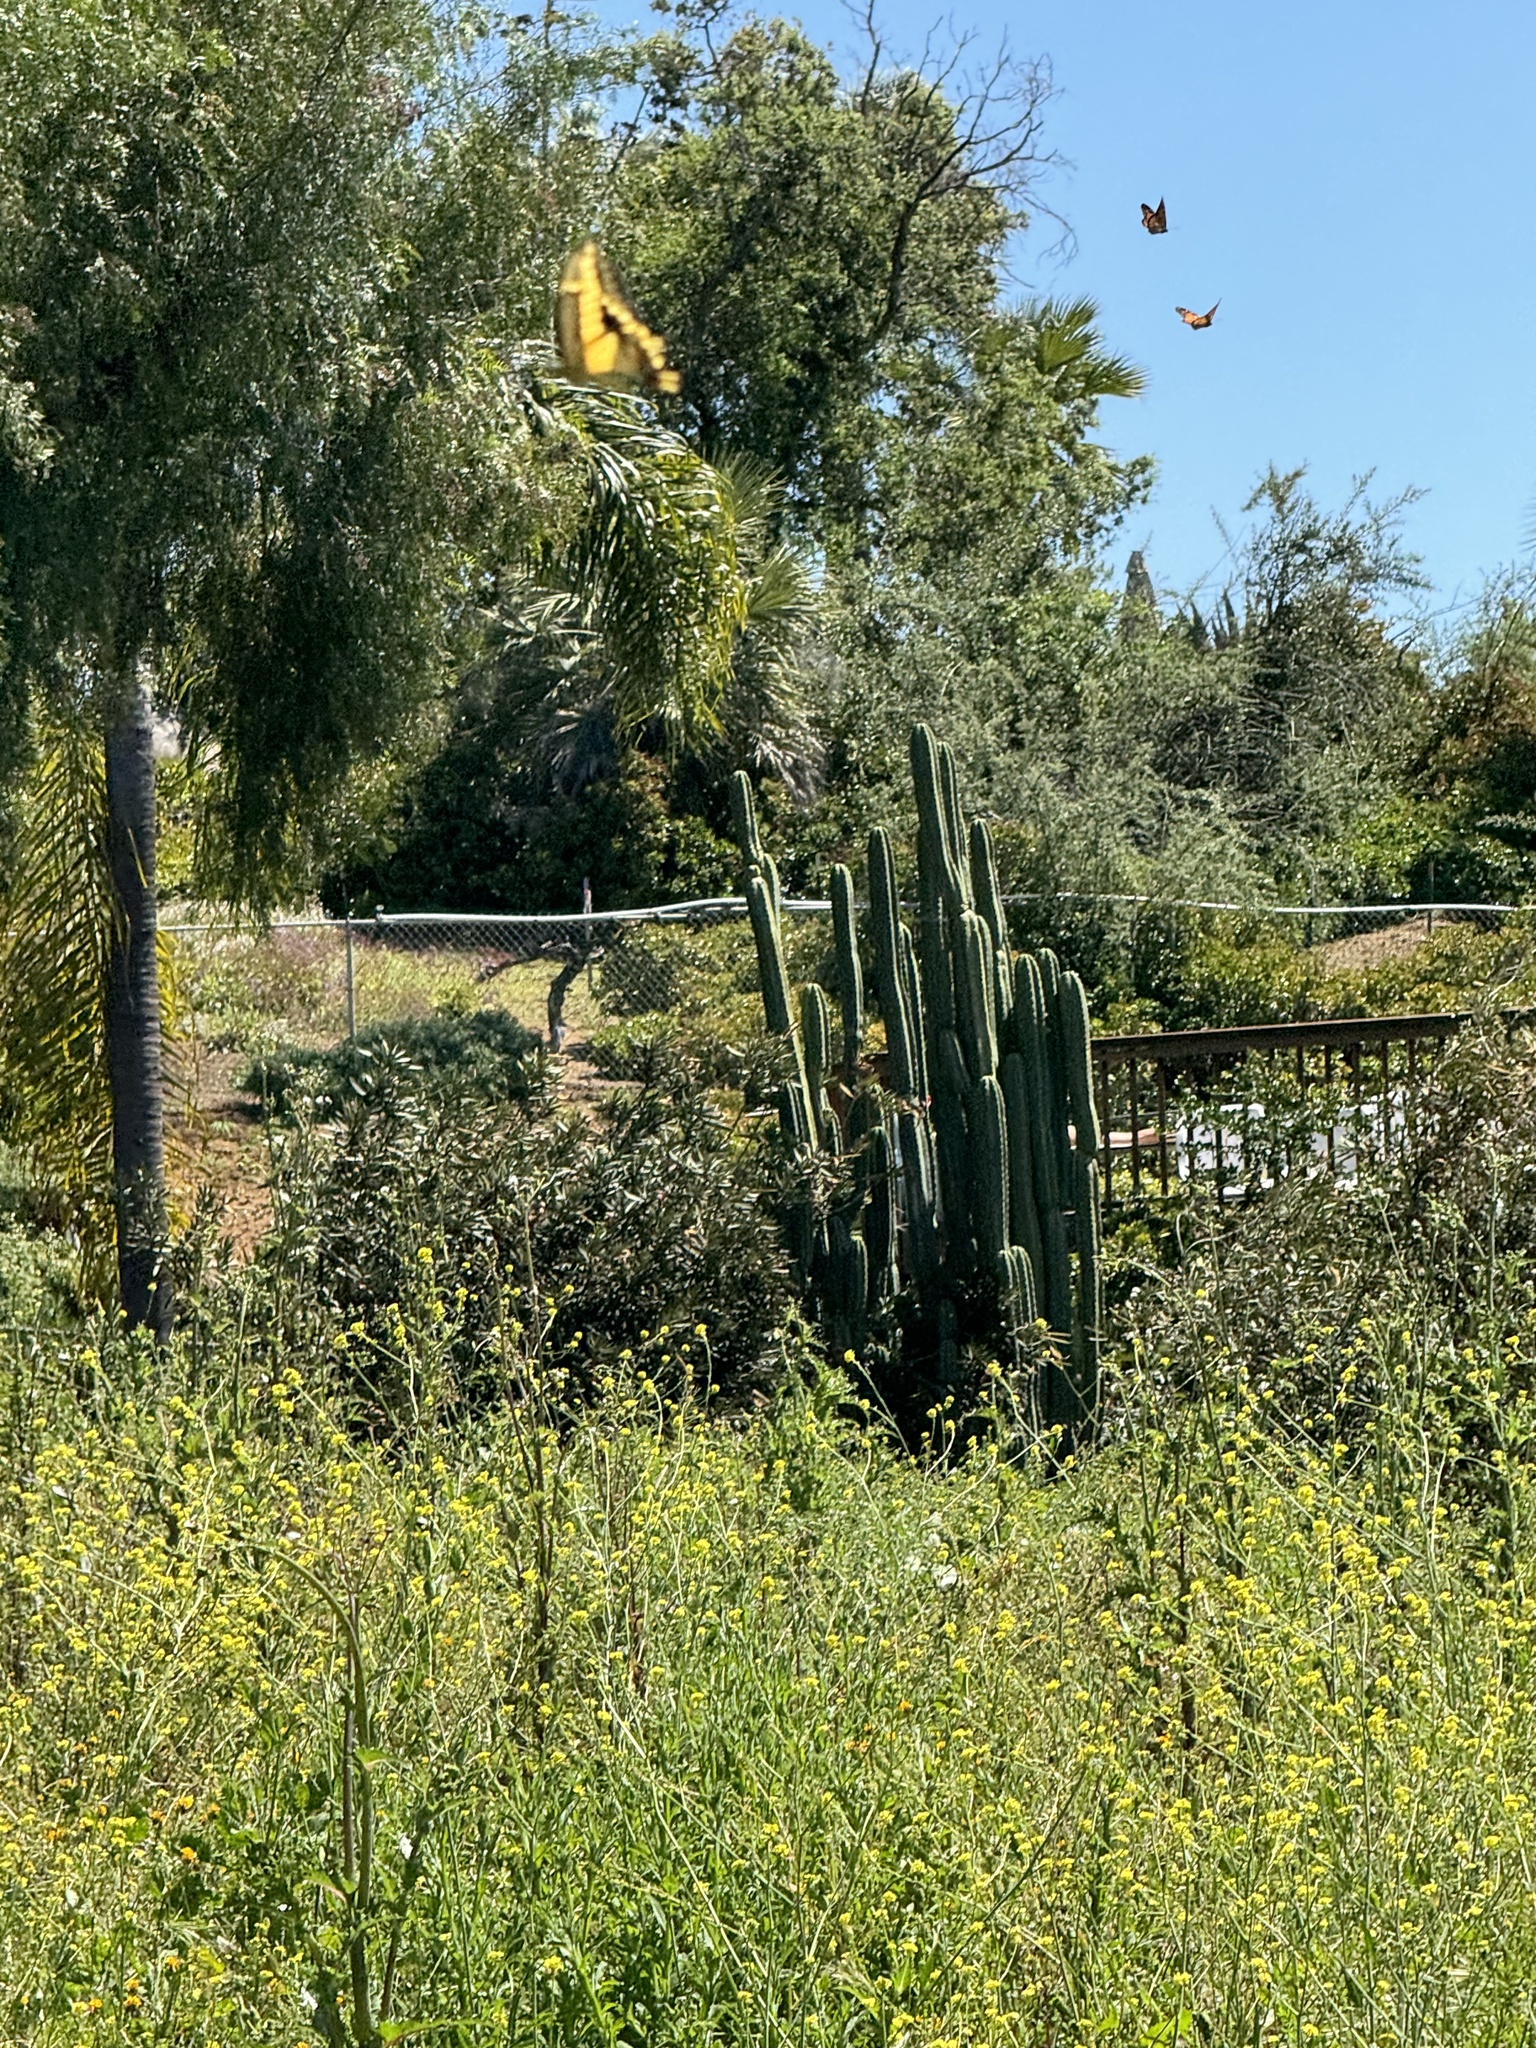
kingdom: Animalia
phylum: Arthropoda
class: Insecta
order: Lepidoptera
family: Papilionidae
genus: Papilio
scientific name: Papilio rumiko
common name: Western giant swallowtail
